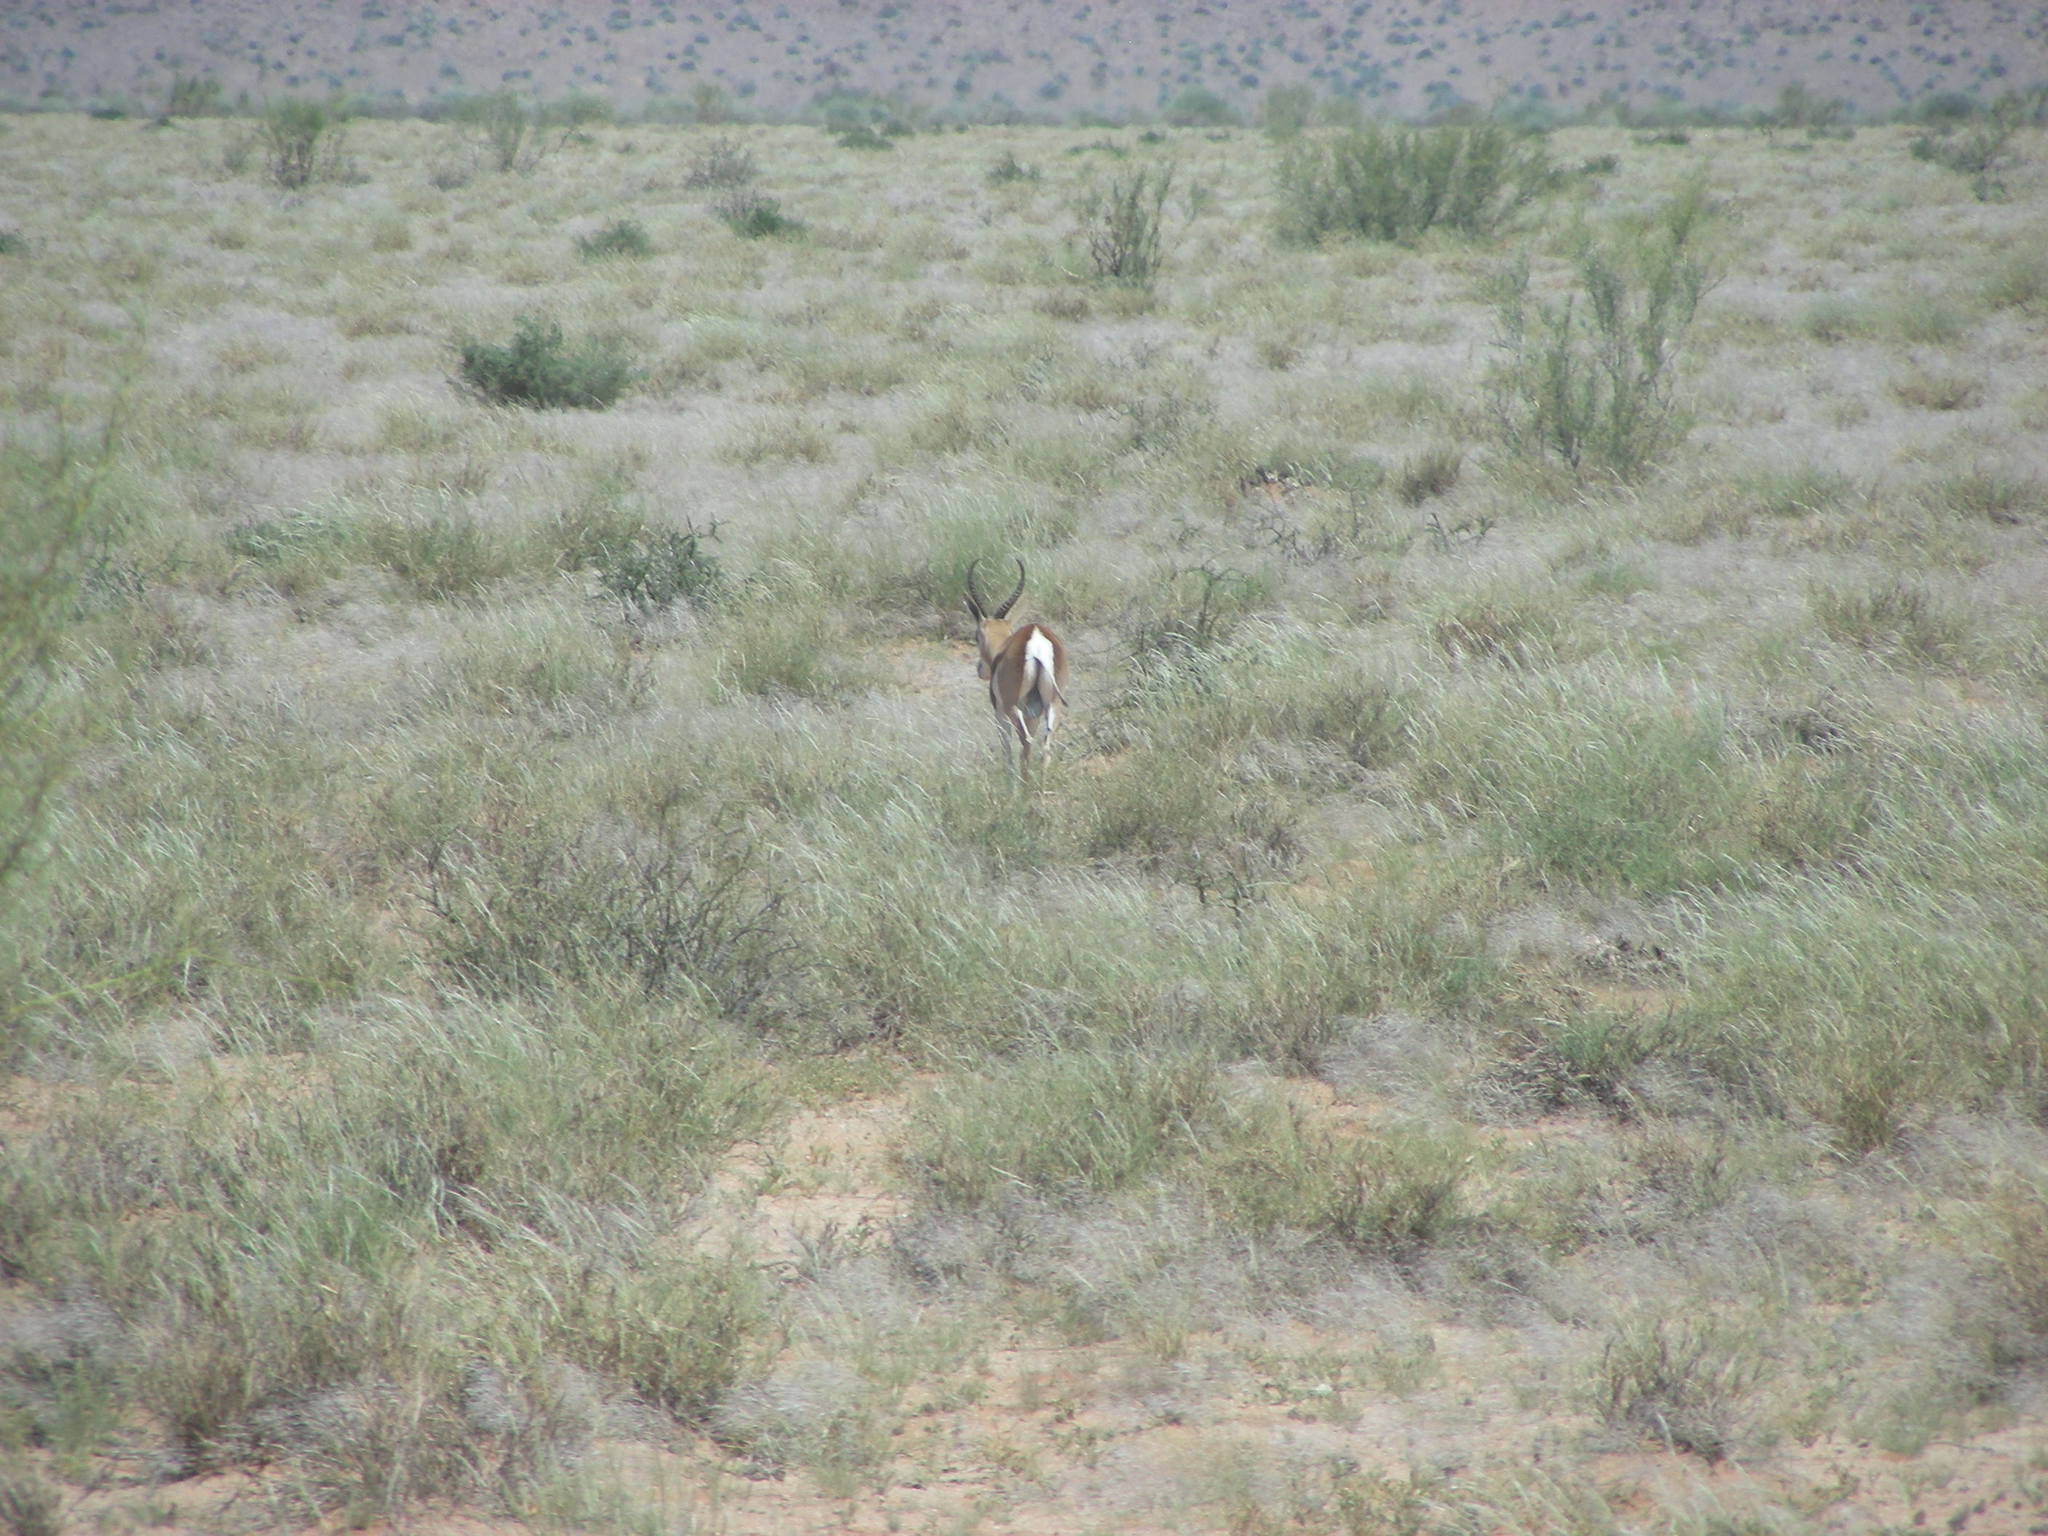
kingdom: Animalia
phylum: Chordata
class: Mammalia
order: Artiodactyla
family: Bovidae
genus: Antidorcas
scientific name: Antidorcas marsupialis
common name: Springbok
